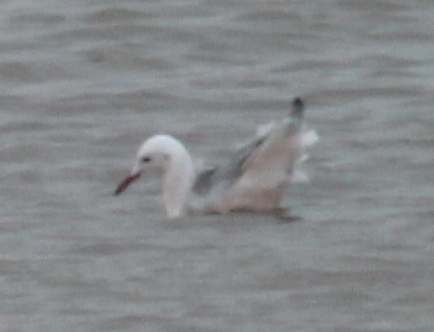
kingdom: Animalia
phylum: Chordata
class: Aves
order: Charadriiformes
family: Laridae
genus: Chroicocephalus
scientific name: Chroicocephalus genei
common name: Slender-billed gull
